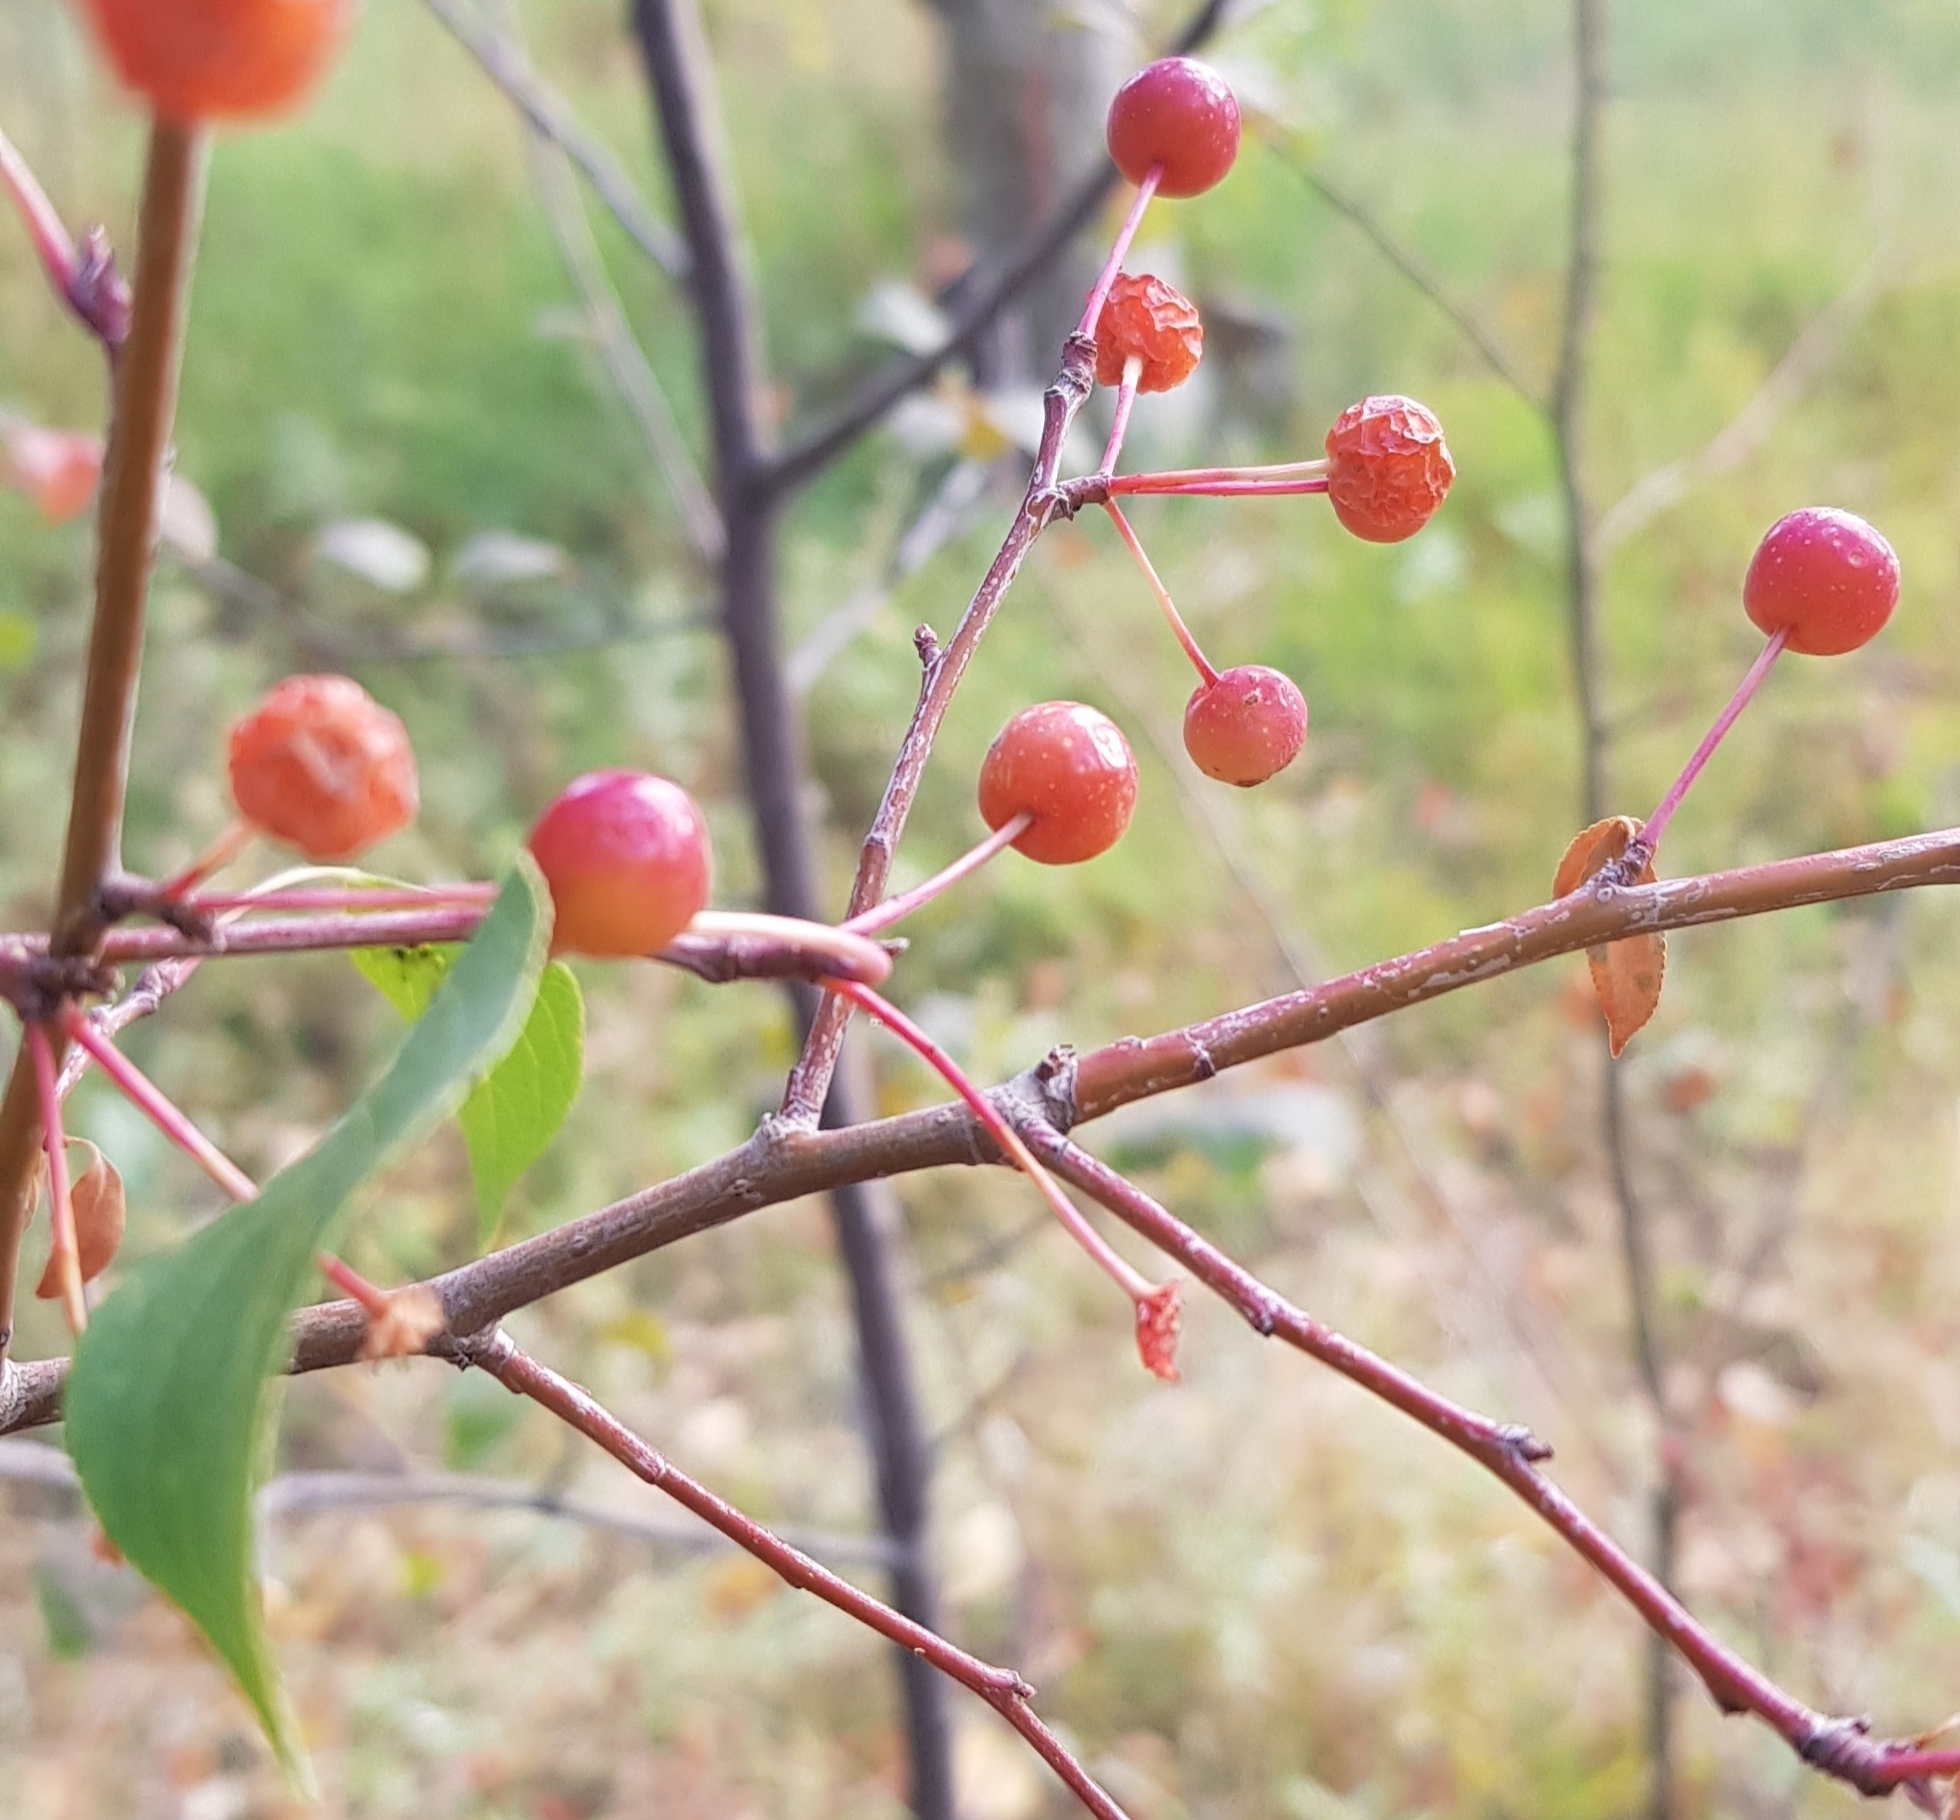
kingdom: Plantae
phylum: Tracheophyta
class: Magnoliopsida
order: Rosales
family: Rosaceae
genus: Malus
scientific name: Malus baccata
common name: Siberian crab
